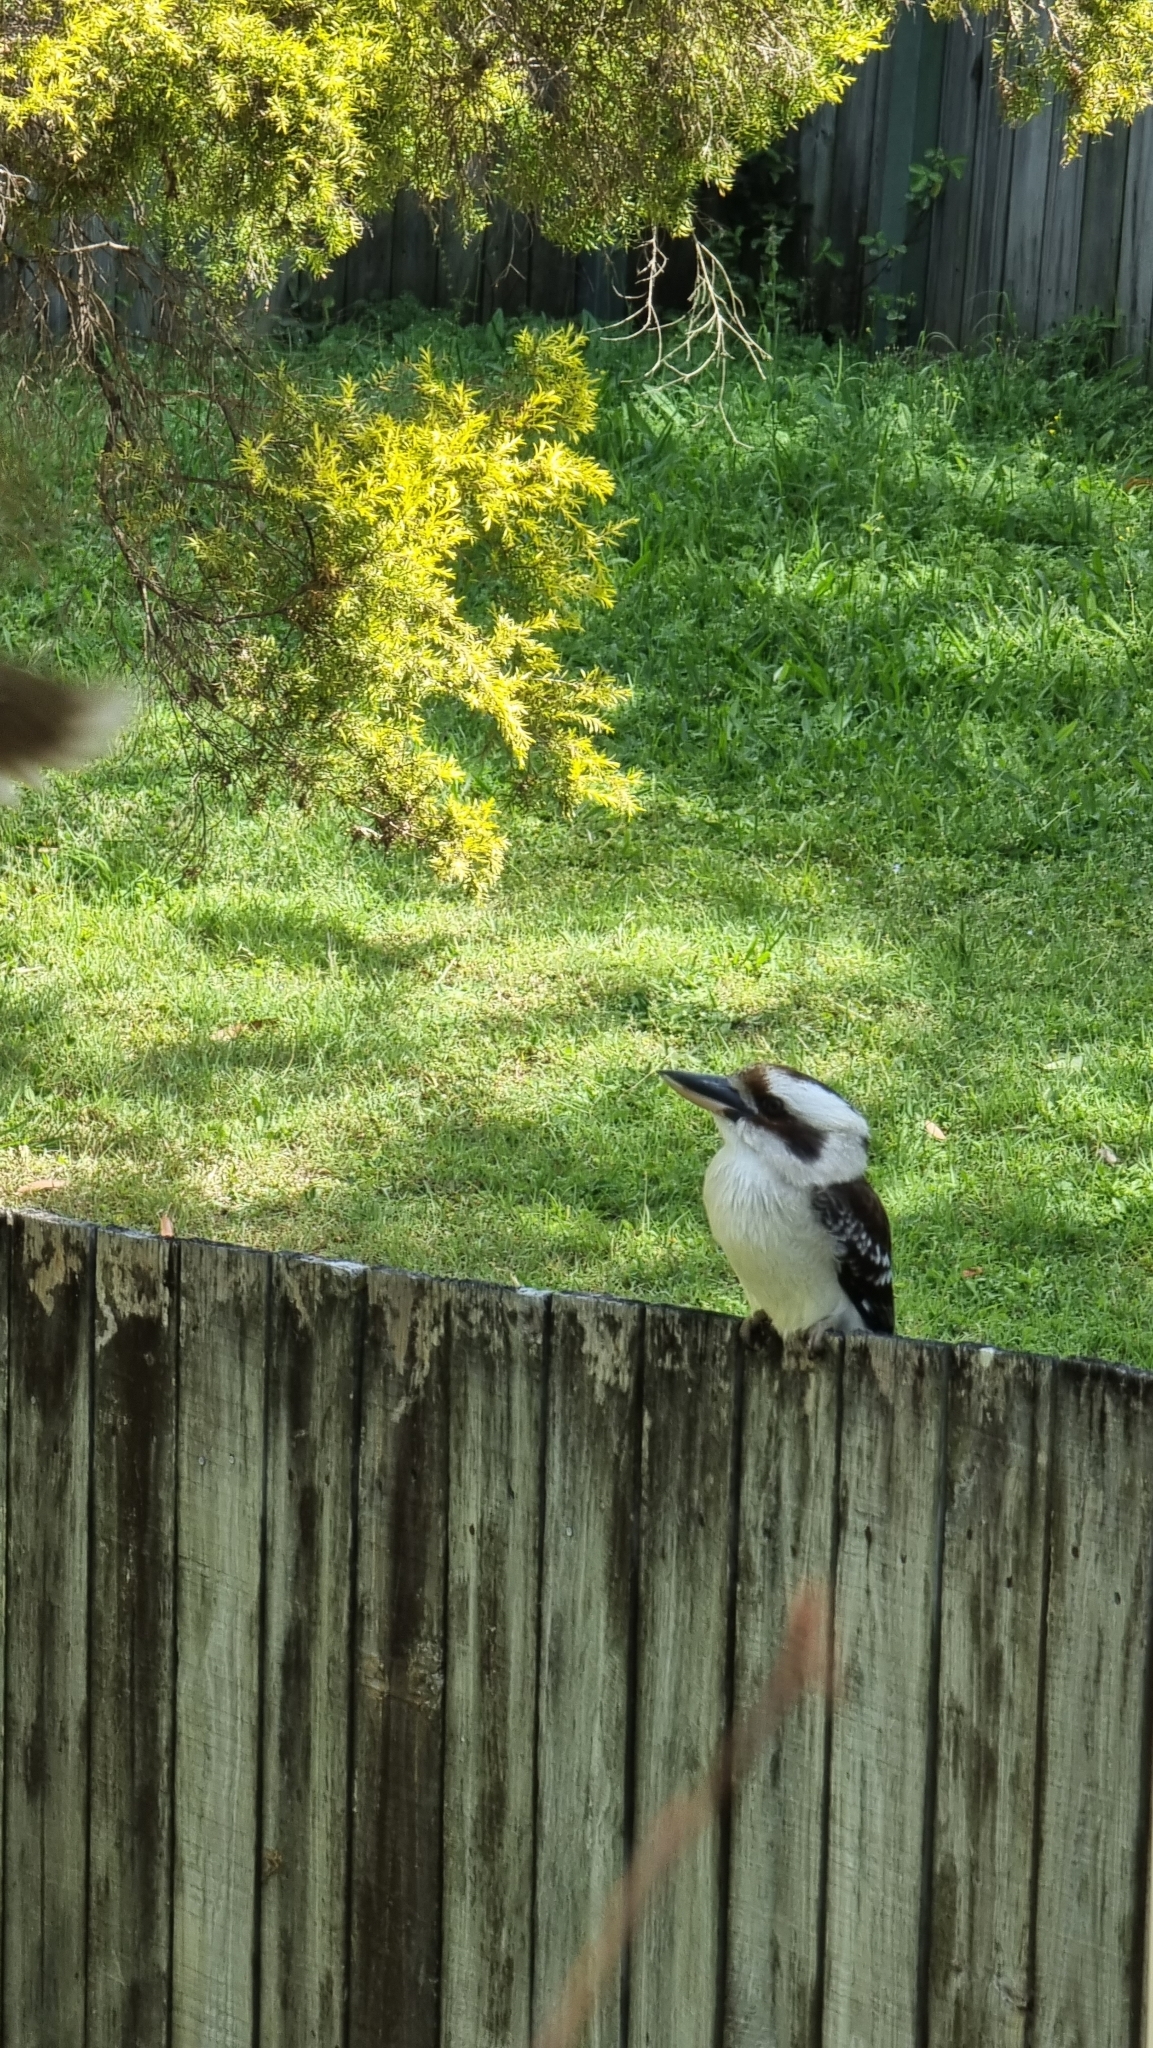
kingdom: Animalia
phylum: Chordata
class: Aves
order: Coraciiformes
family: Alcedinidae
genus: Dacelo
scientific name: Dacelo novaeguineae
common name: Laughing kookaburra
